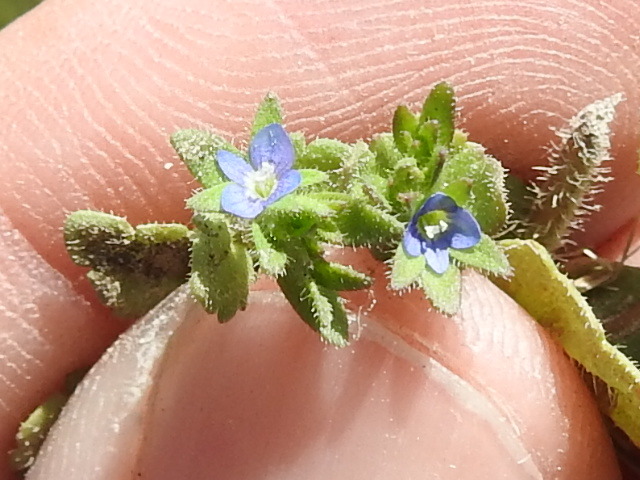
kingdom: Plantae
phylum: Tracheophyta
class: Magnoliopsida
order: Lamiales
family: Plantaginaceae
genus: Veronica
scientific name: Veronica arvensis
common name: Corn speedwell
